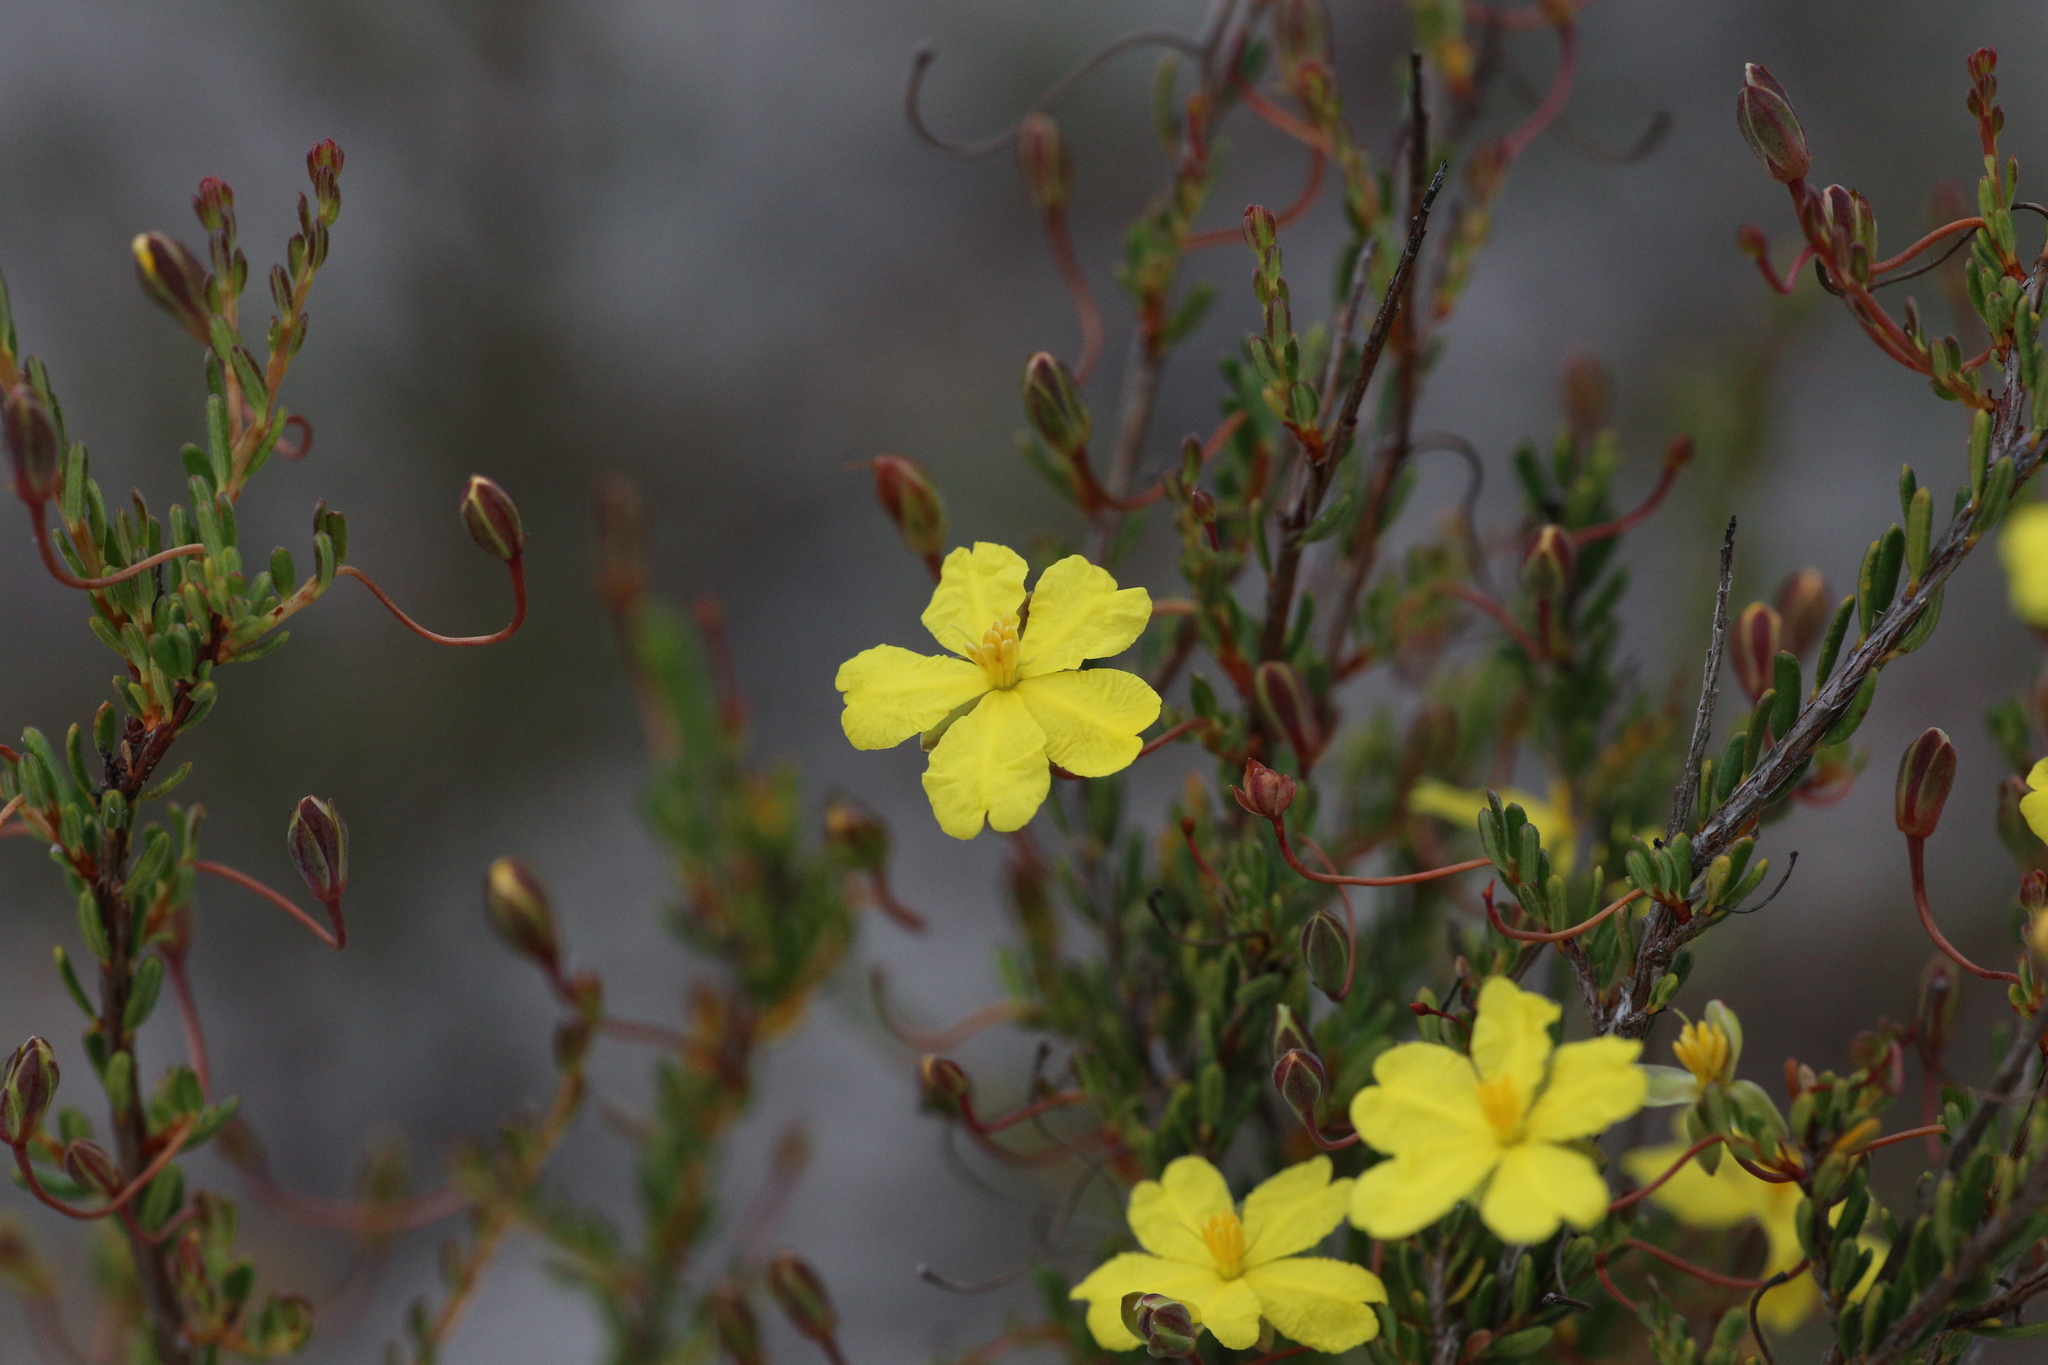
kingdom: Plantae
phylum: Tracheophyta
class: Magnoliopsida
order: Dilleniales
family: Dilleniaceae
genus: Hibbertia
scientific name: Hibbertia andrewsiana
